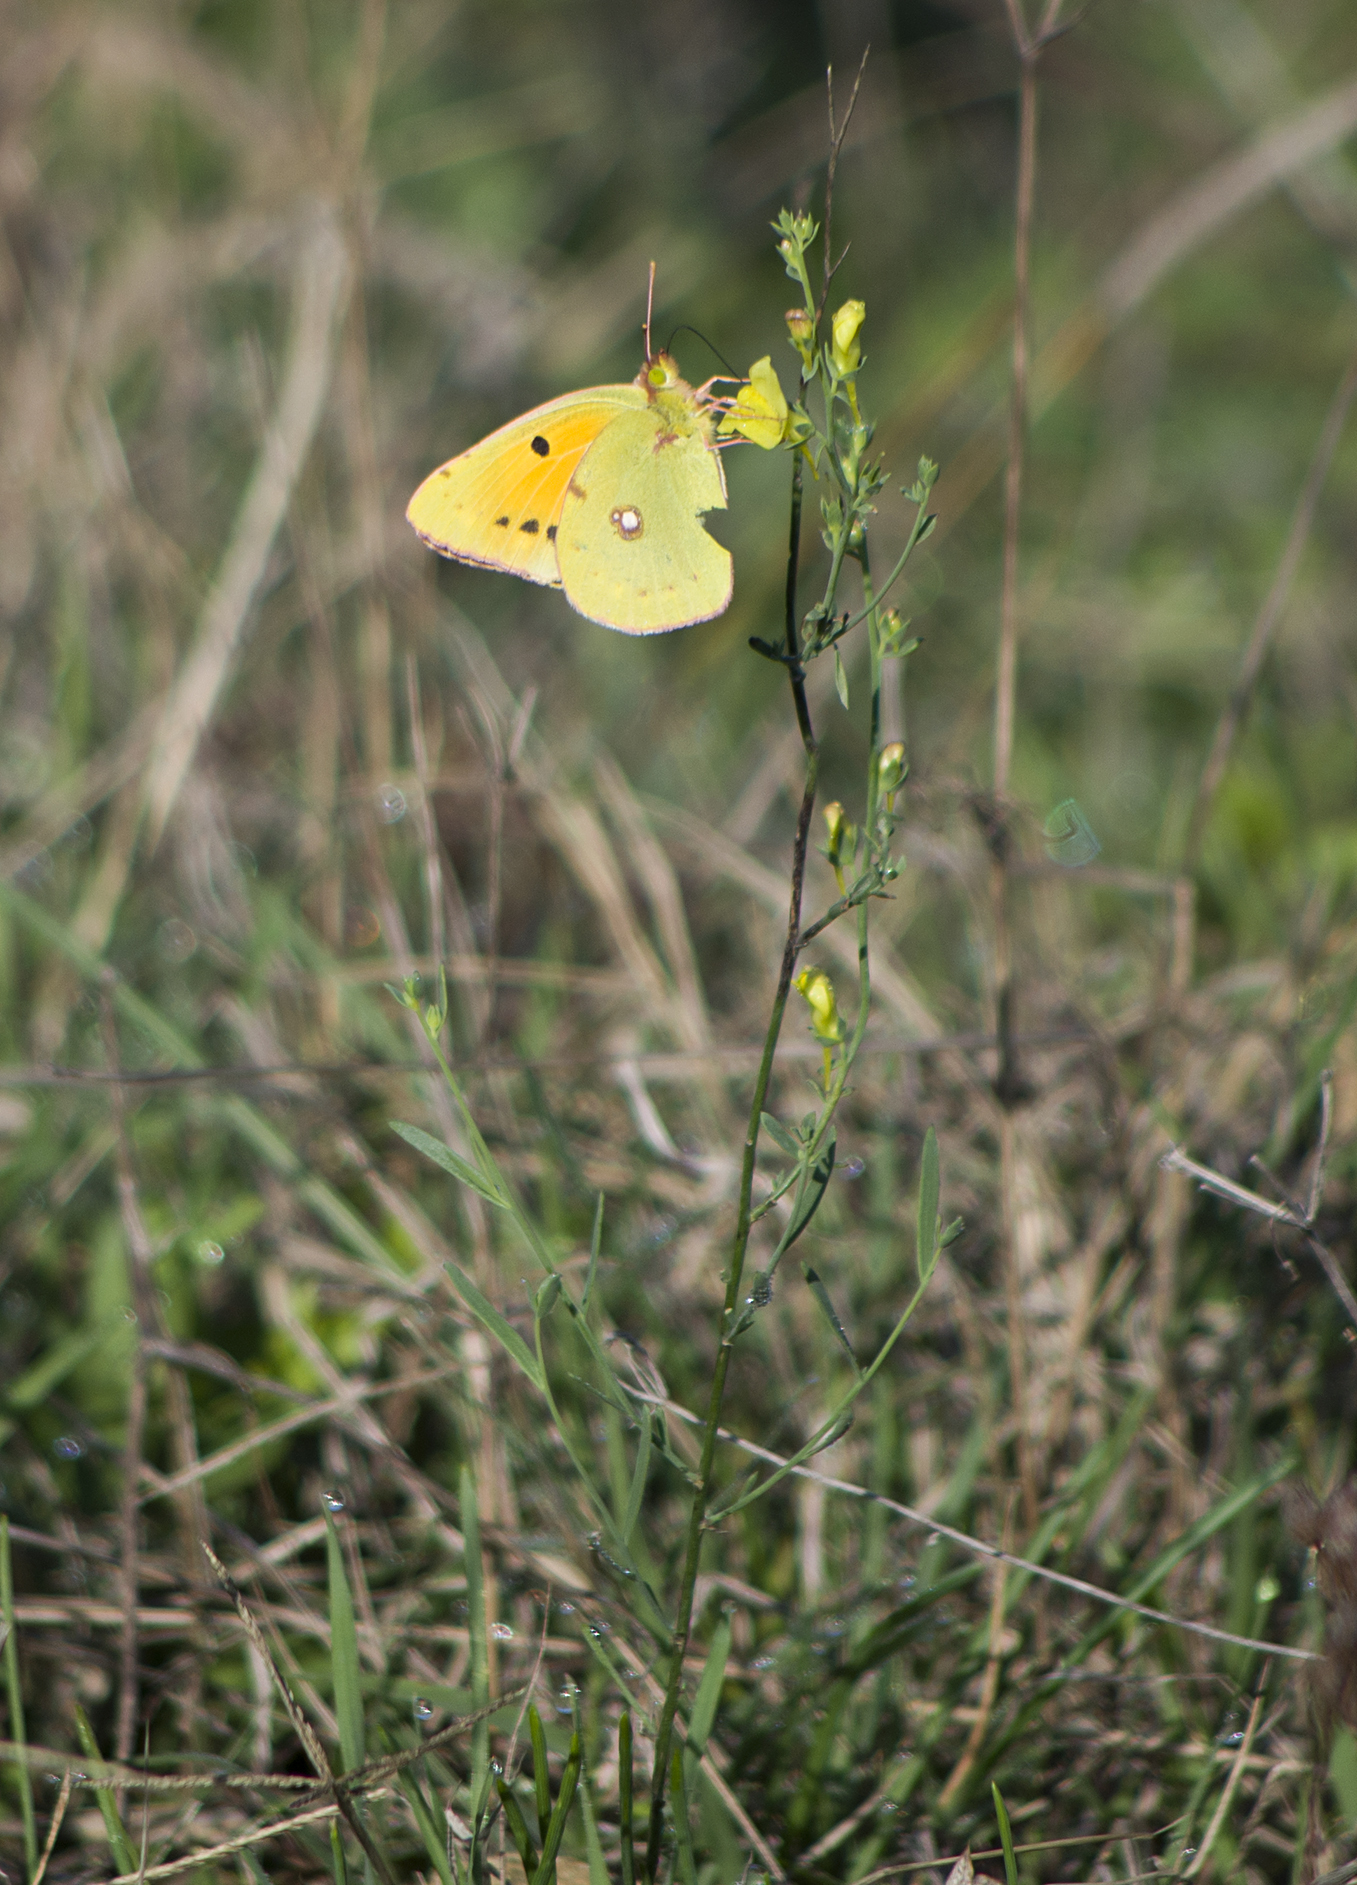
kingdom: Animalia
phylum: Arthropoda
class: Insecta
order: Lepidoptera
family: Pieridae
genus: Colias
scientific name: Colias croceus
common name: Clouded yellow
